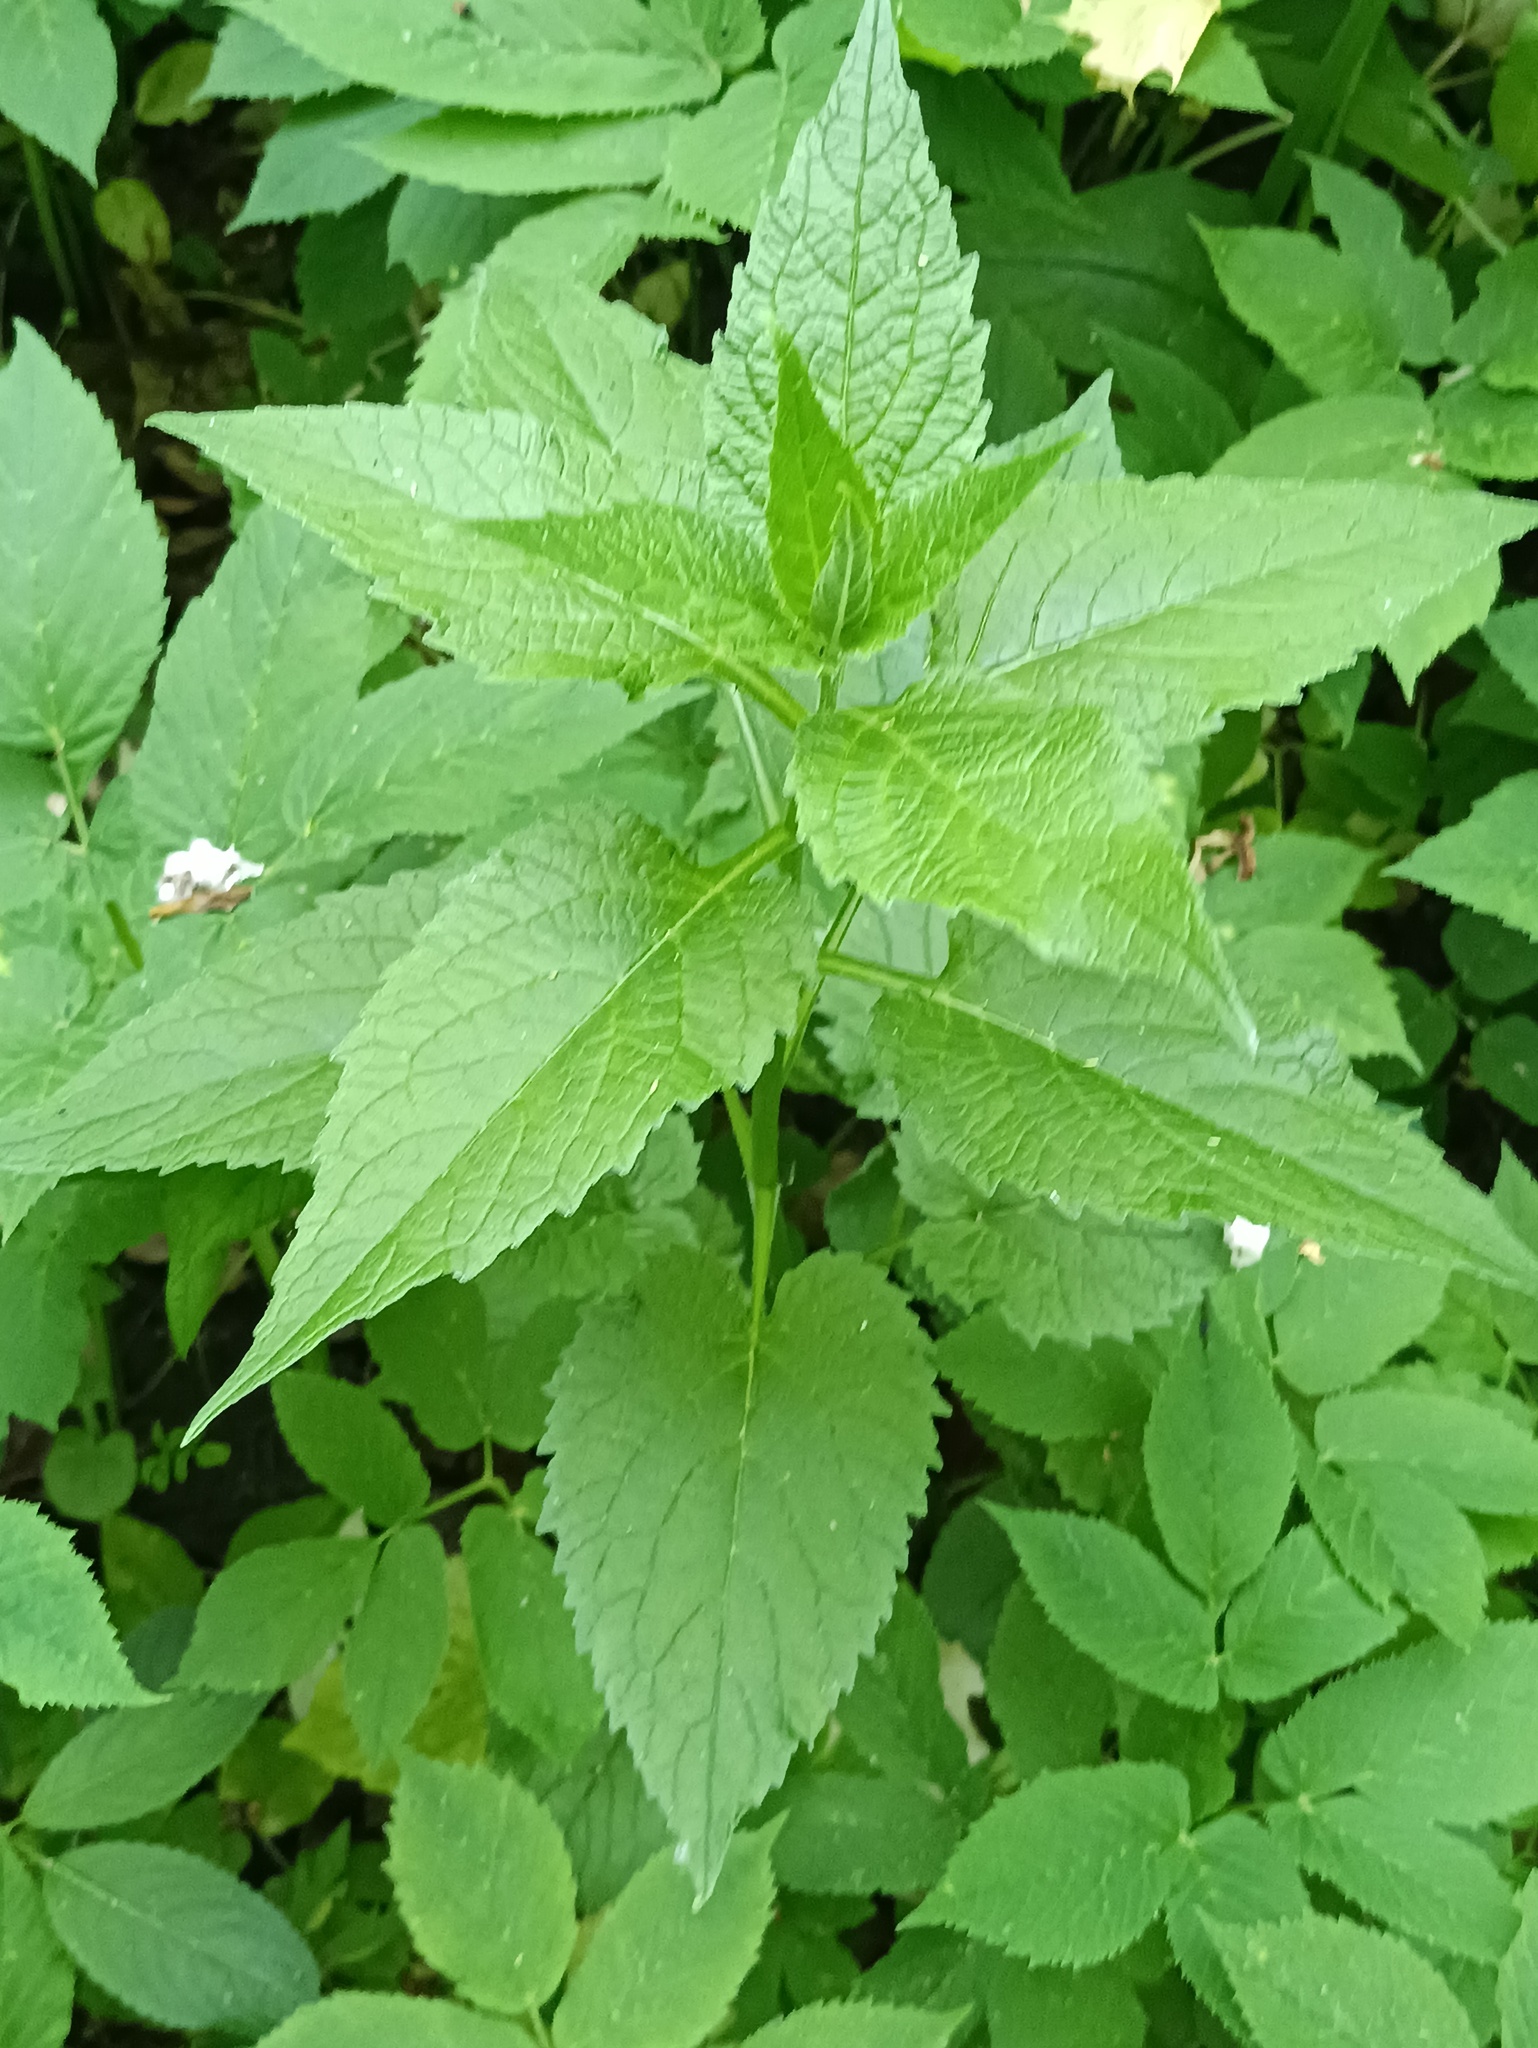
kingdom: Plantae
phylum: Tracheophyta
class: Magnoliopsida
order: Asterales
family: Campanulaceae
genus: Campanula
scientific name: Campanula latifolia
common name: Giant bellflower
